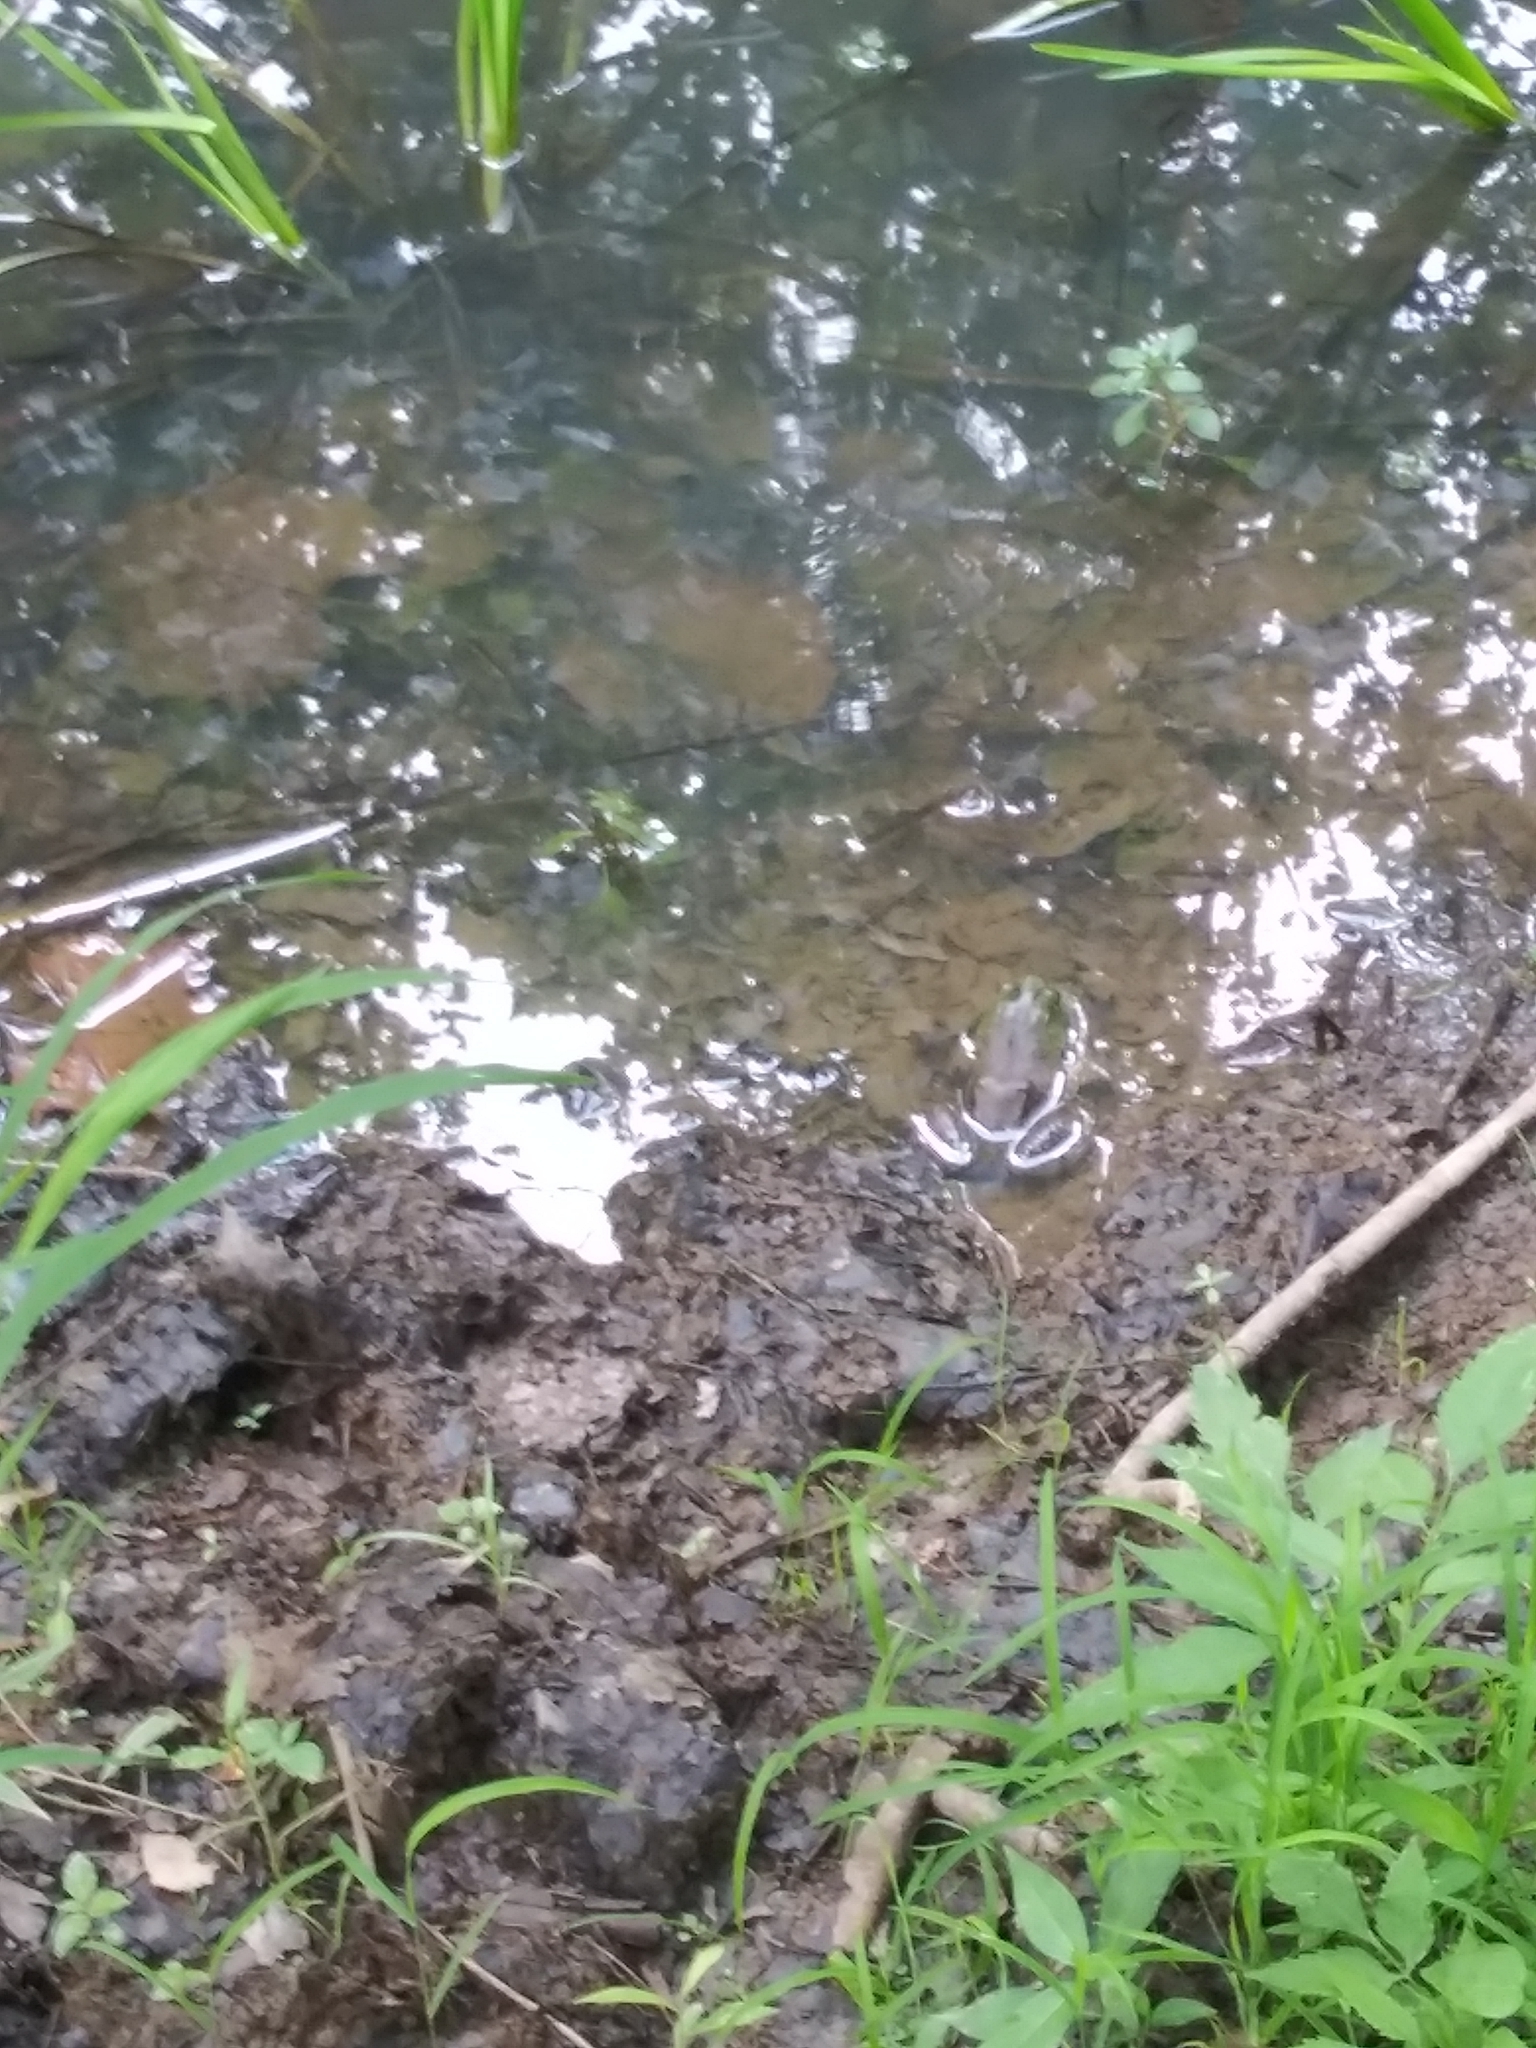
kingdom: Animalia
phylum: Chordata
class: Amphibia
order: Anura
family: Ranidae
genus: Lithobates
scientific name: Lithobates catesbeianus
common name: American bullfrog
